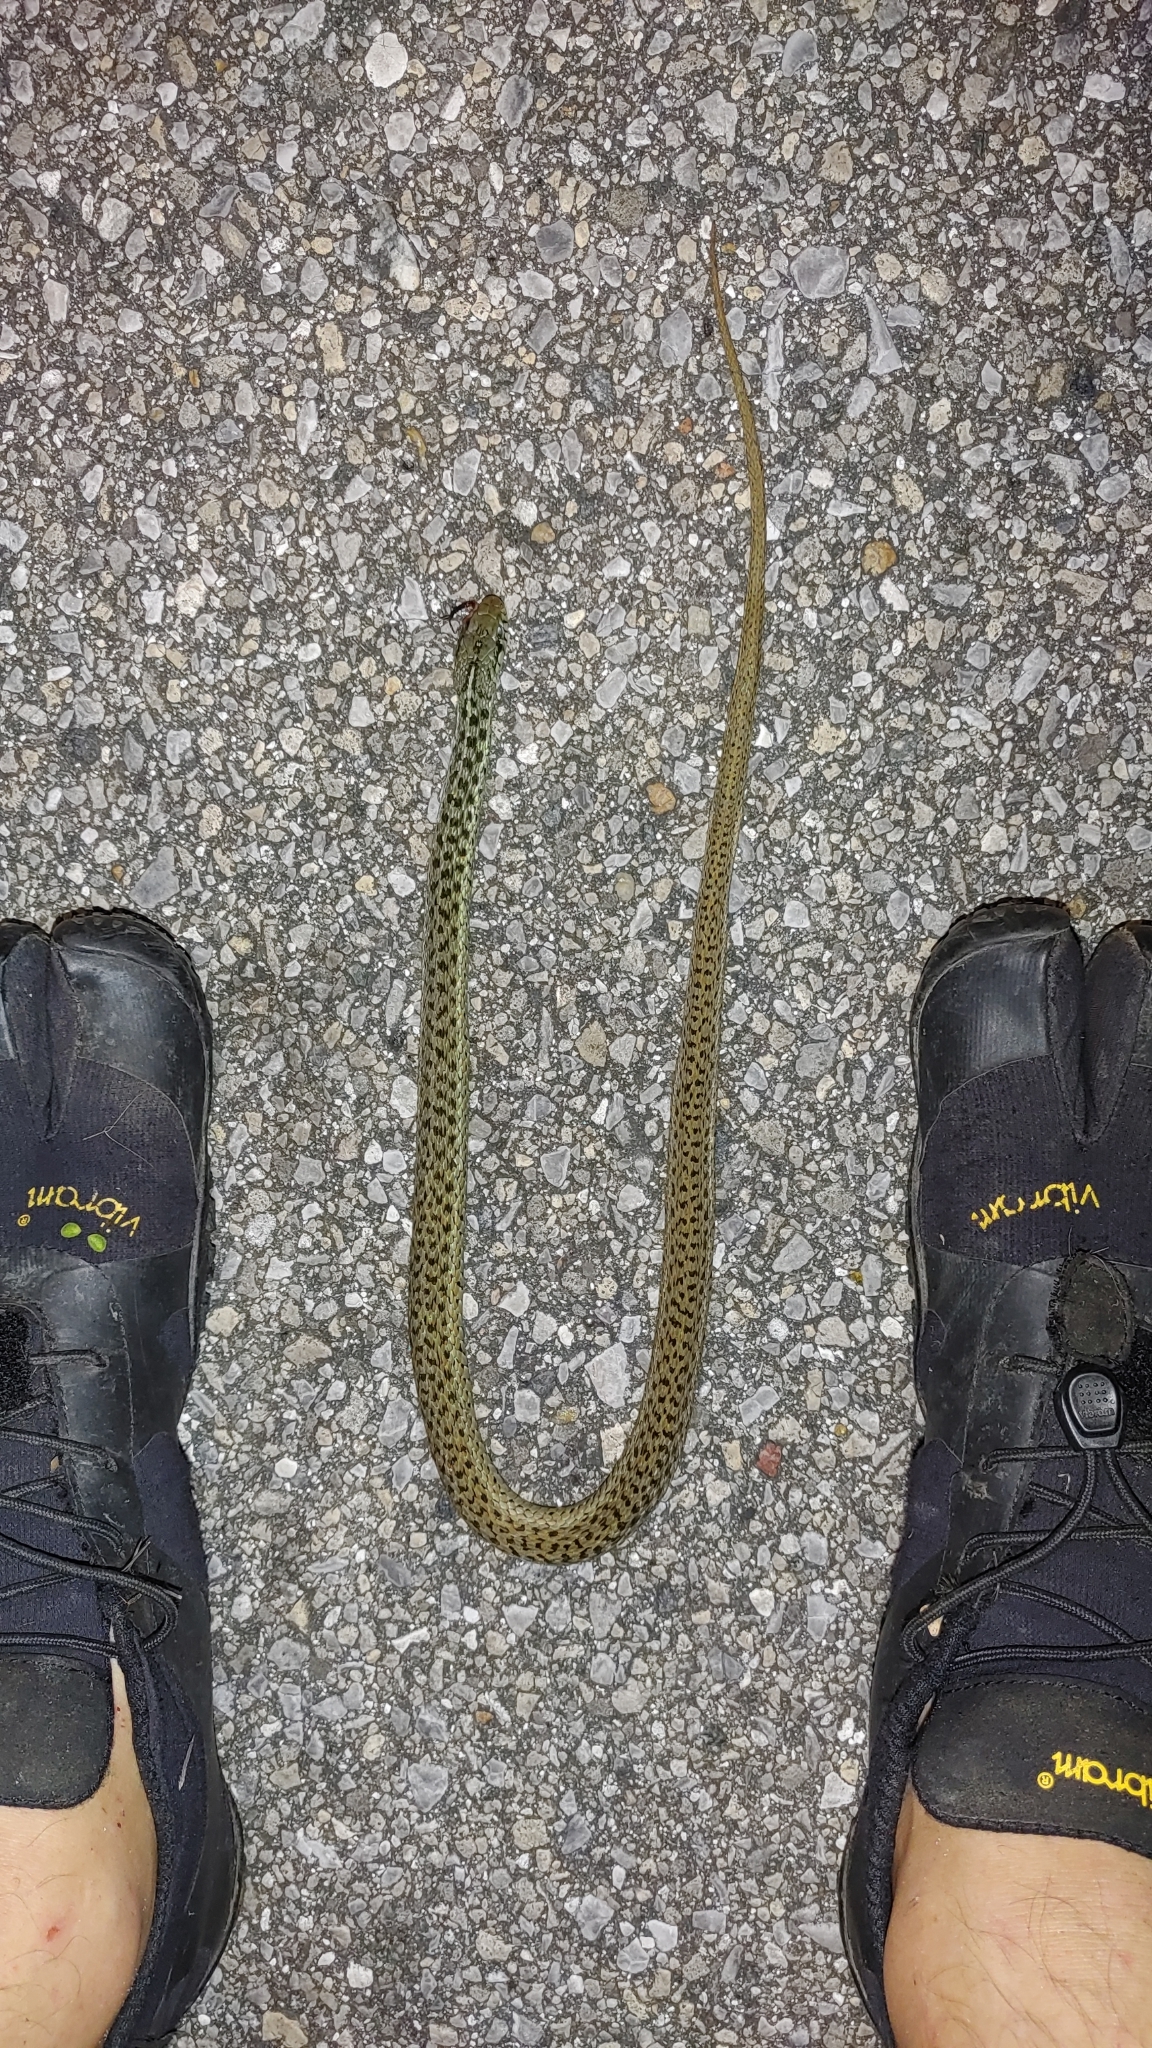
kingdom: Animalia
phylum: Chordata
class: Squamata
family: Colubridae
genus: Thamnophis
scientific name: Thamnophis sirtalis
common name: Common garter snake
